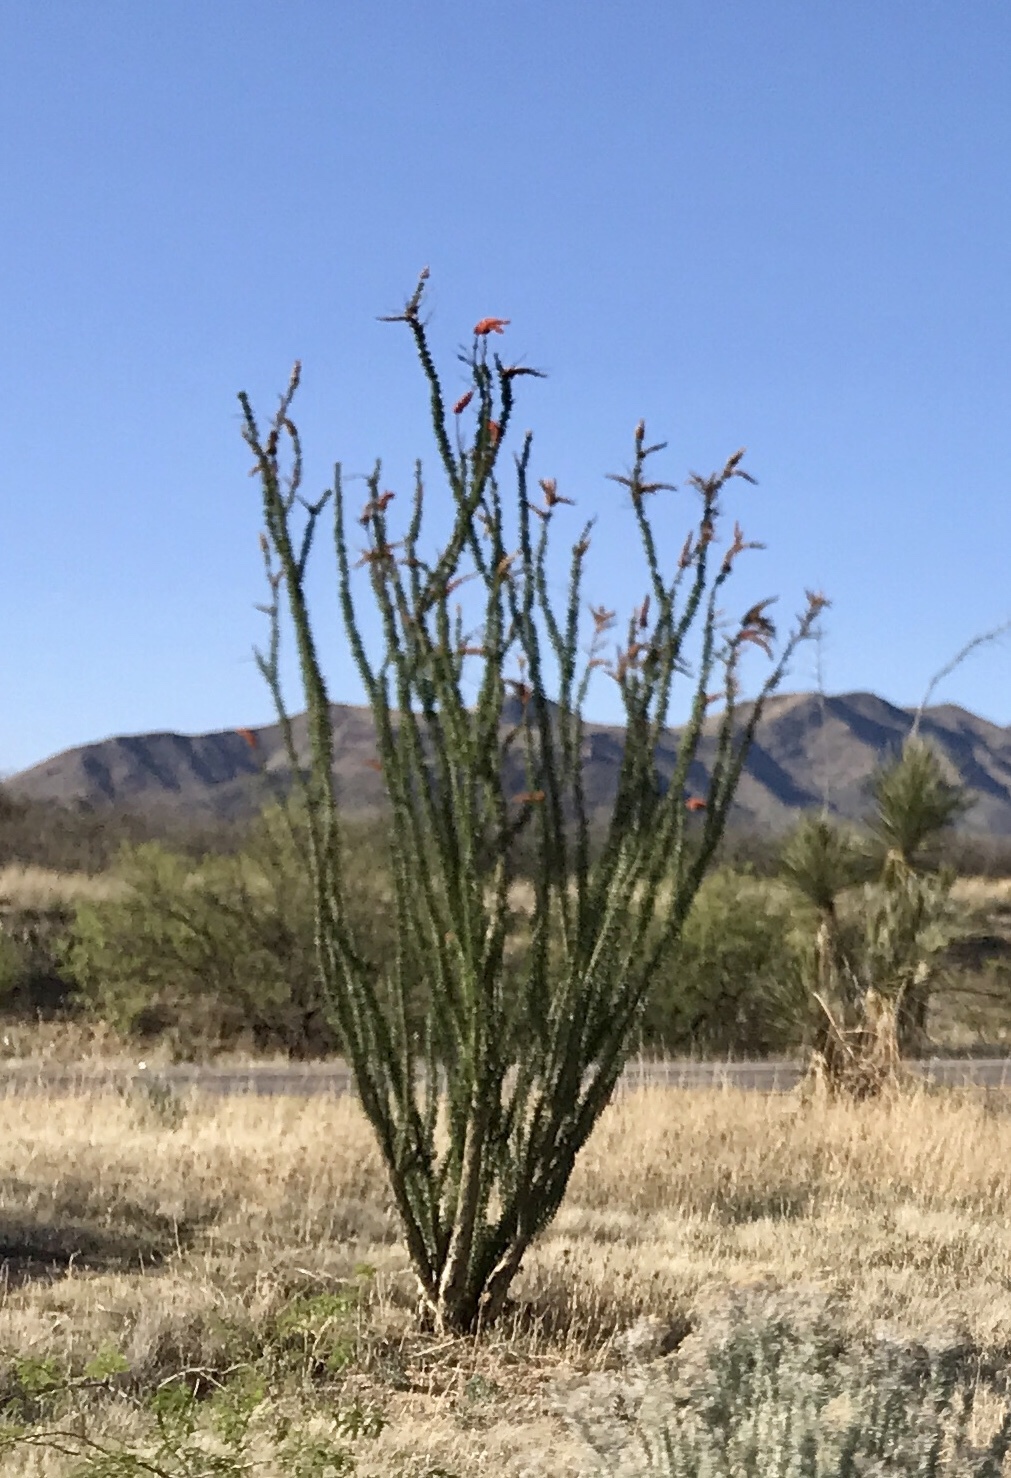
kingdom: Plantae
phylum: Tracheophyta
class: Magnoliopsida
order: Ericales
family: Fouquieriaceae
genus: Fouquieria
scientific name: Fouquieria splendens
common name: Vine-cactus
